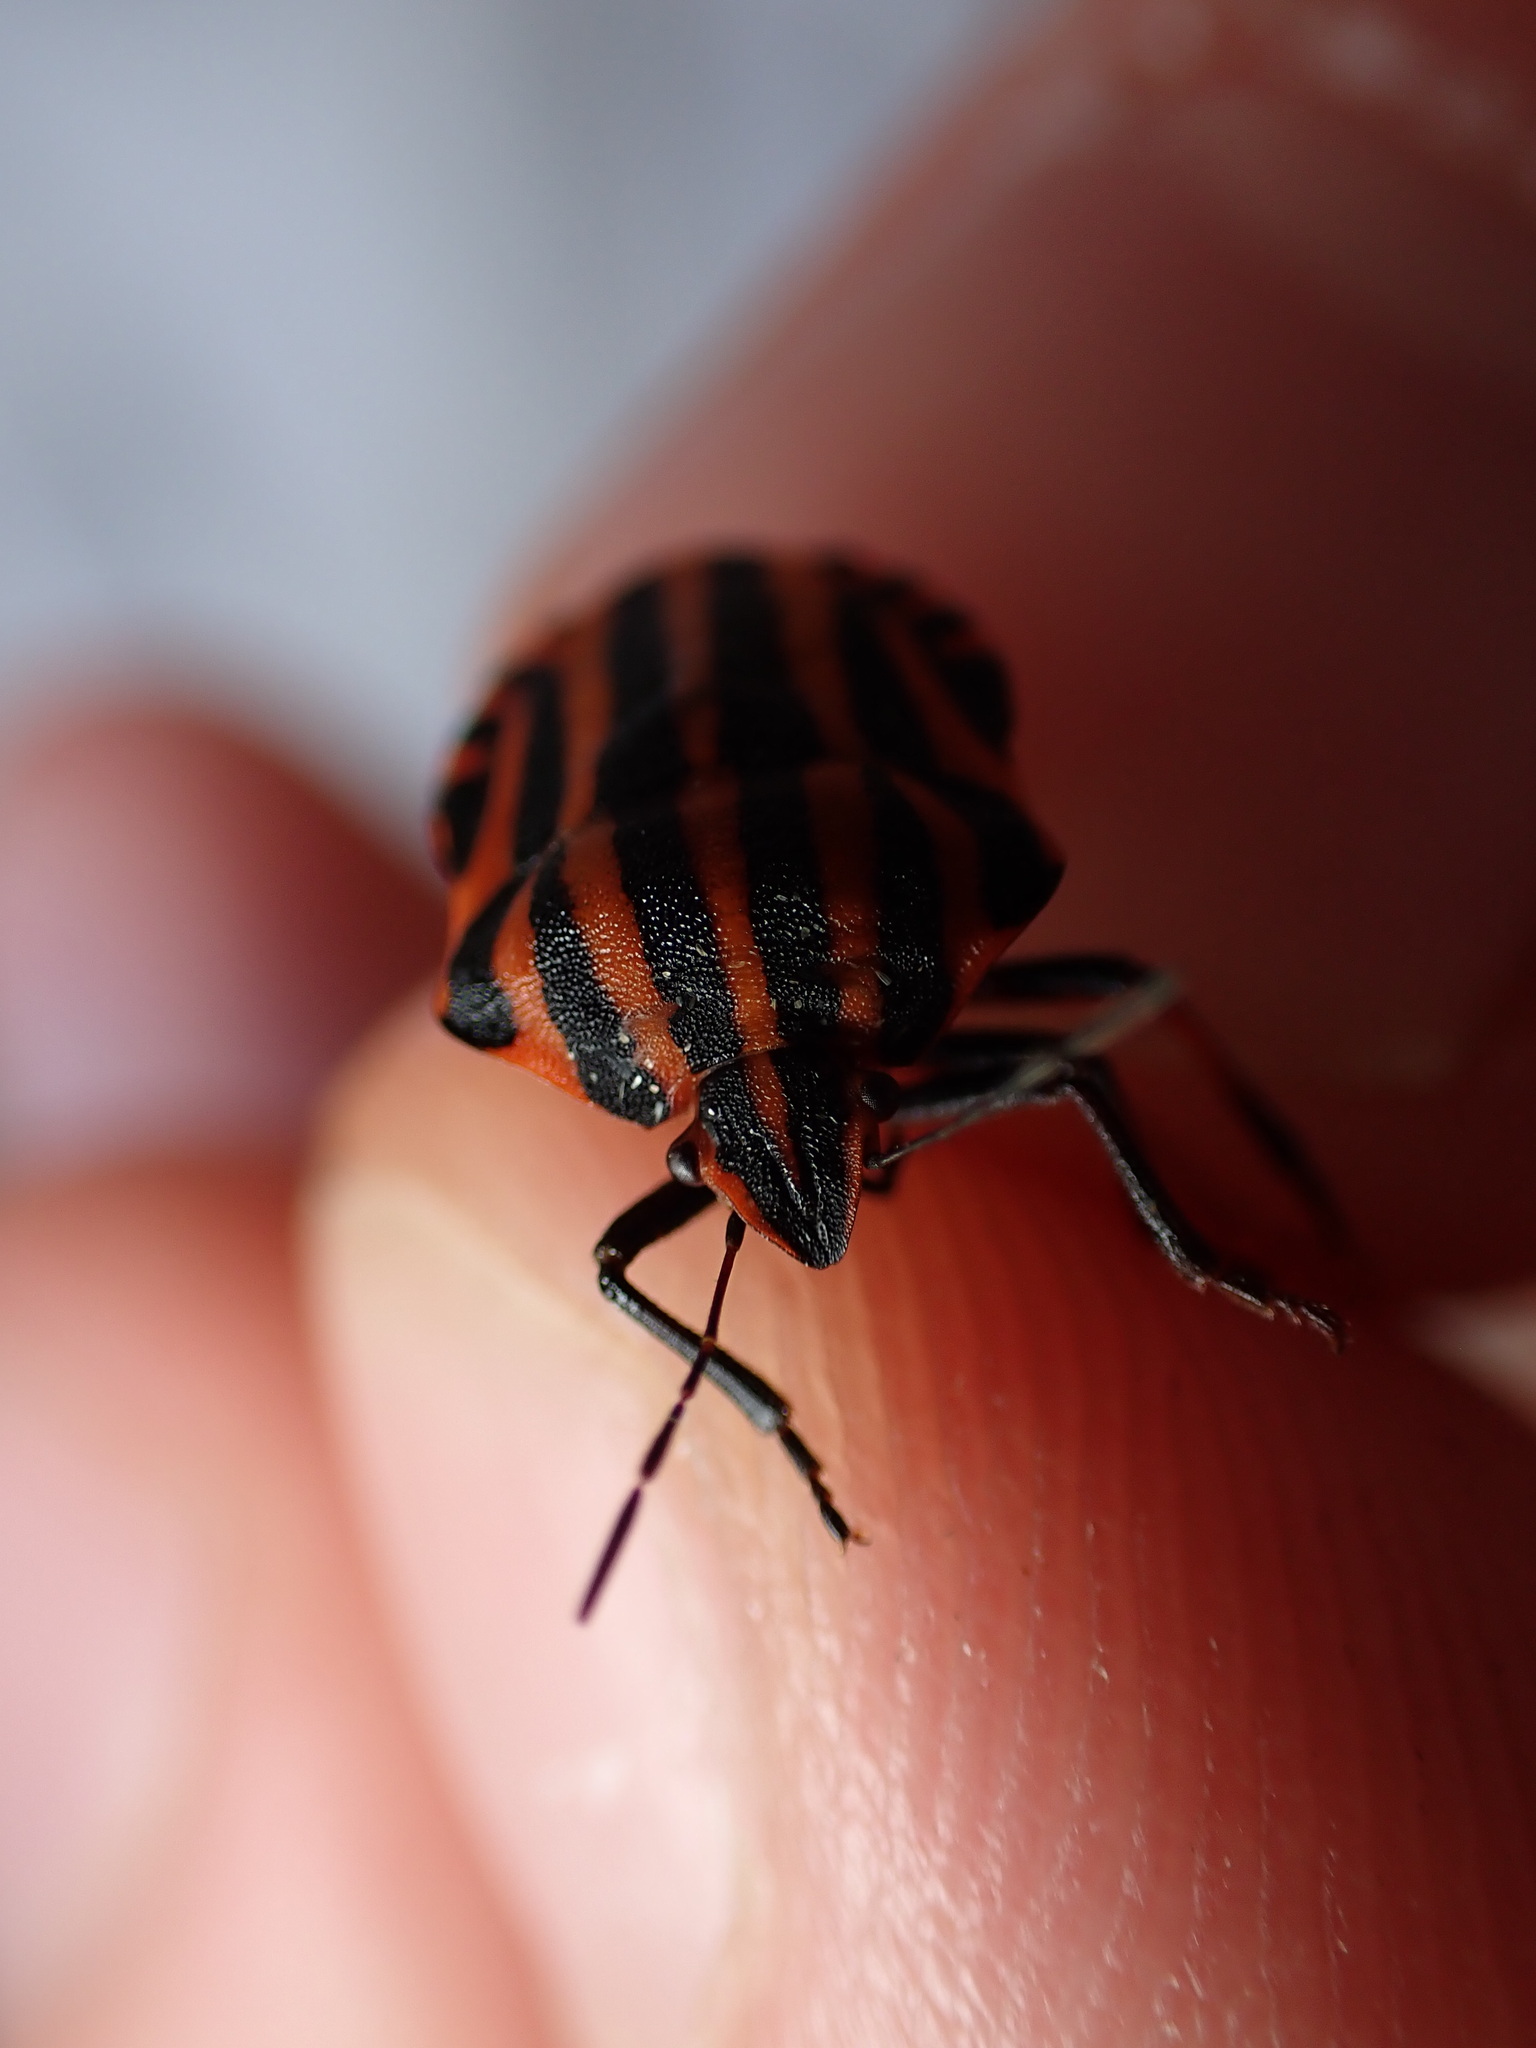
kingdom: Animalia
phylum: Arthropoda
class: Insecta
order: Hemiptera
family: Pentatomidae
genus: Graphosoma
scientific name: Graphosoma italicum
